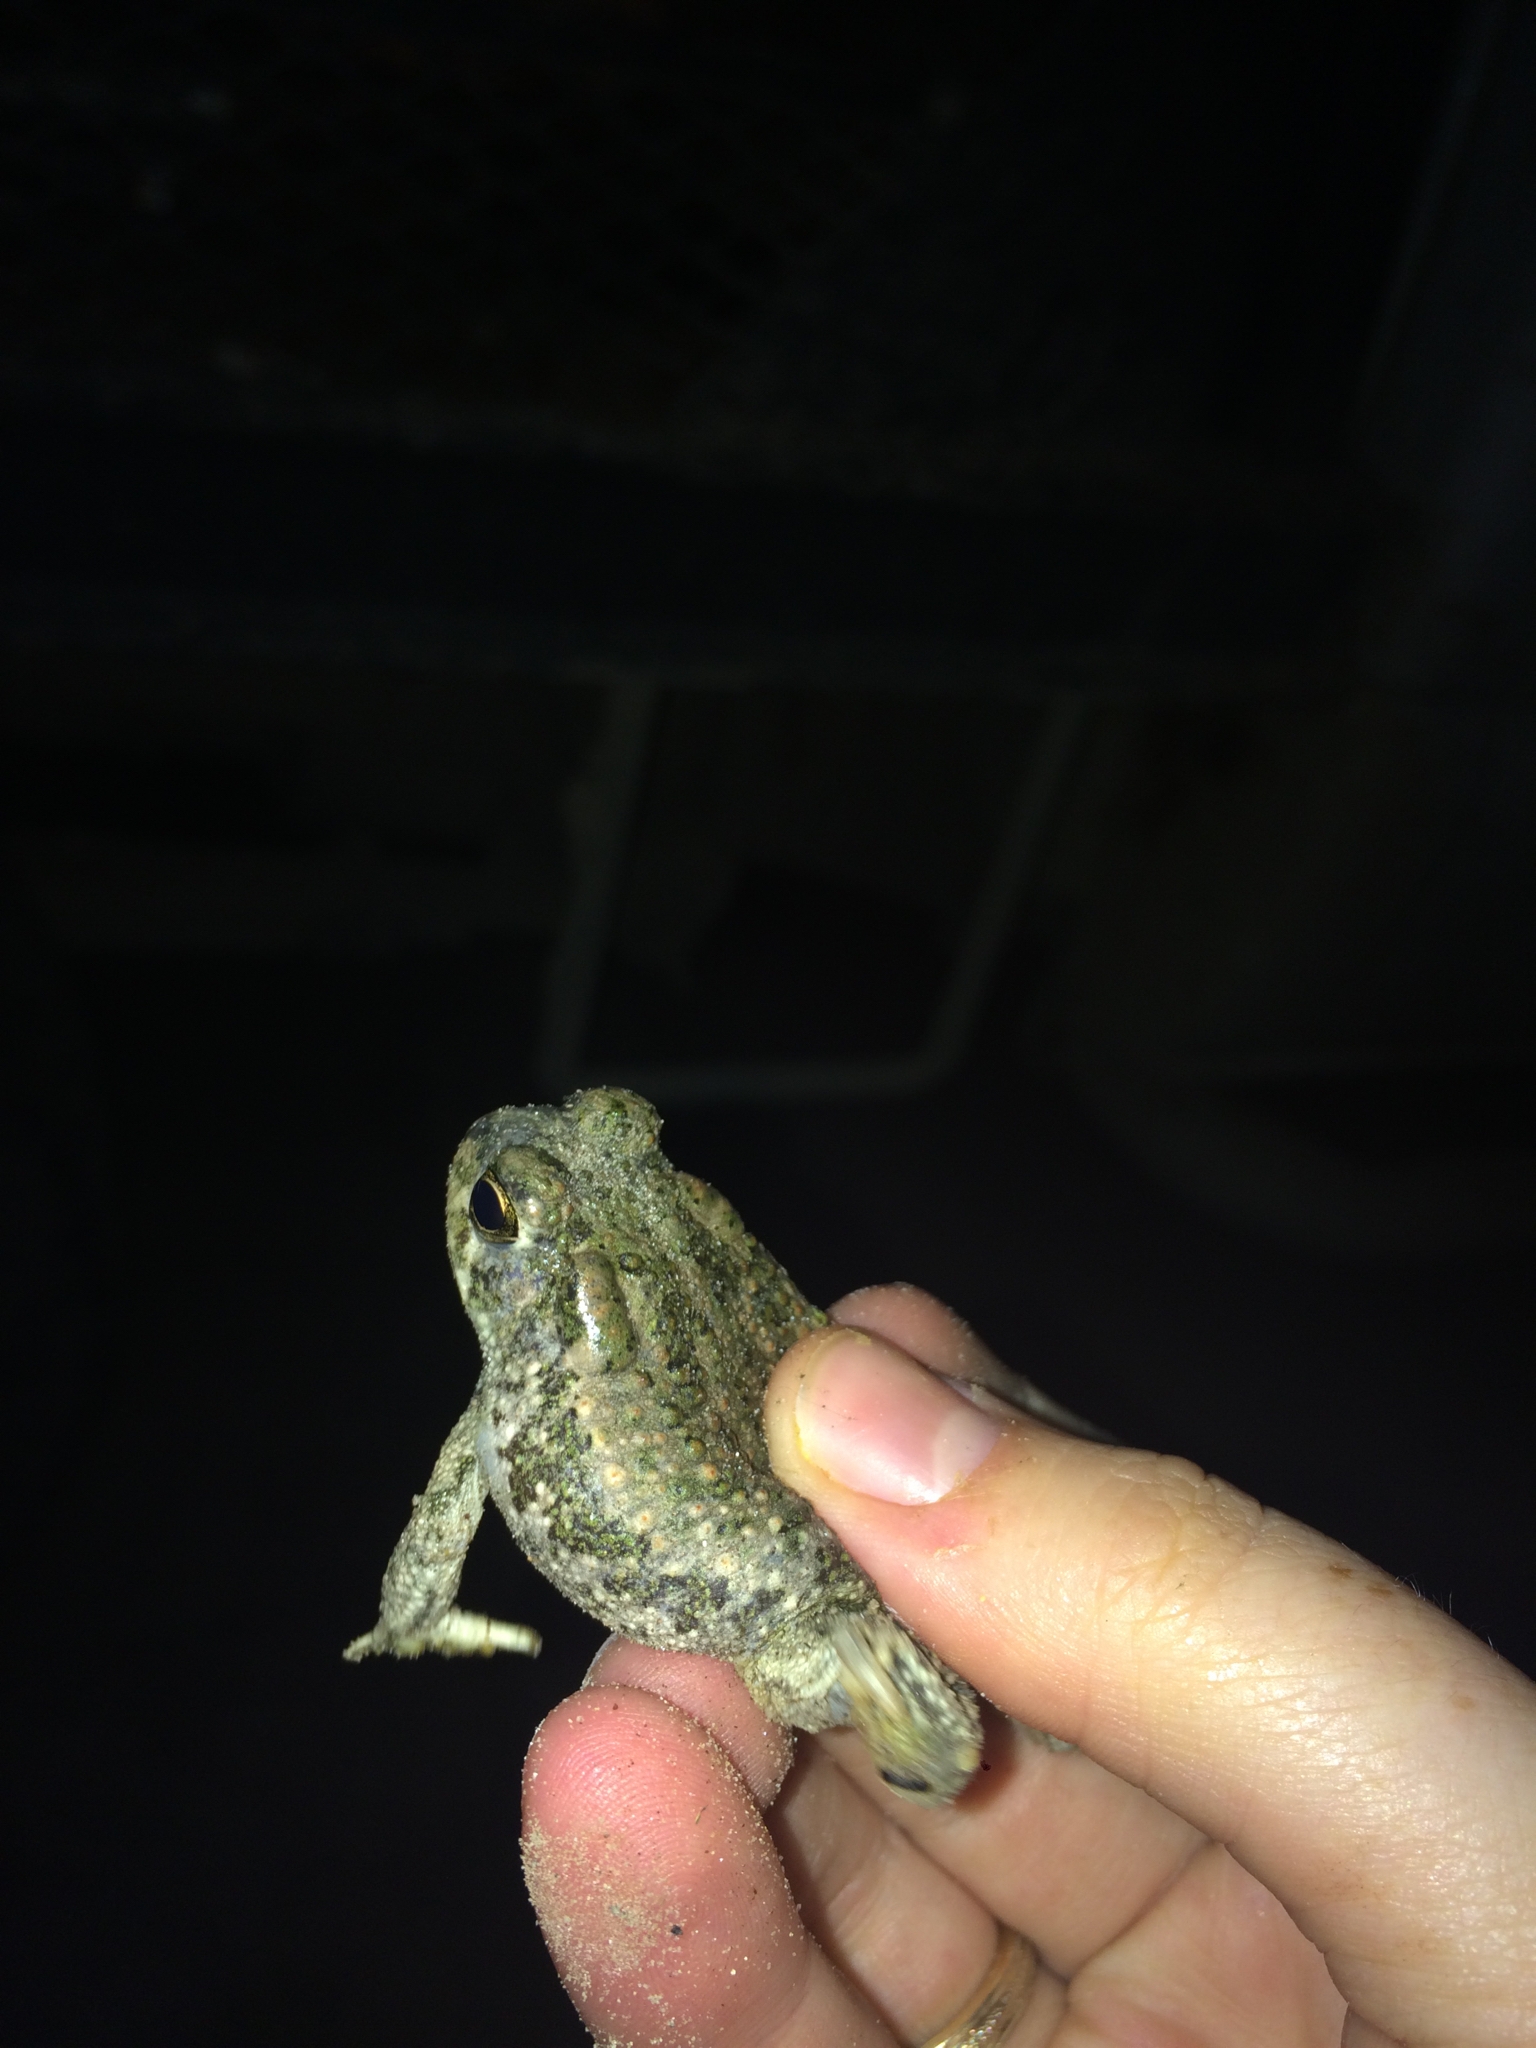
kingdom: Animalia
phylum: Chordata
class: Amphibia
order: Anura
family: Bufonidae
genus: Anaxyrus
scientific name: Anaxyrus speciosus
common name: Texas toad
